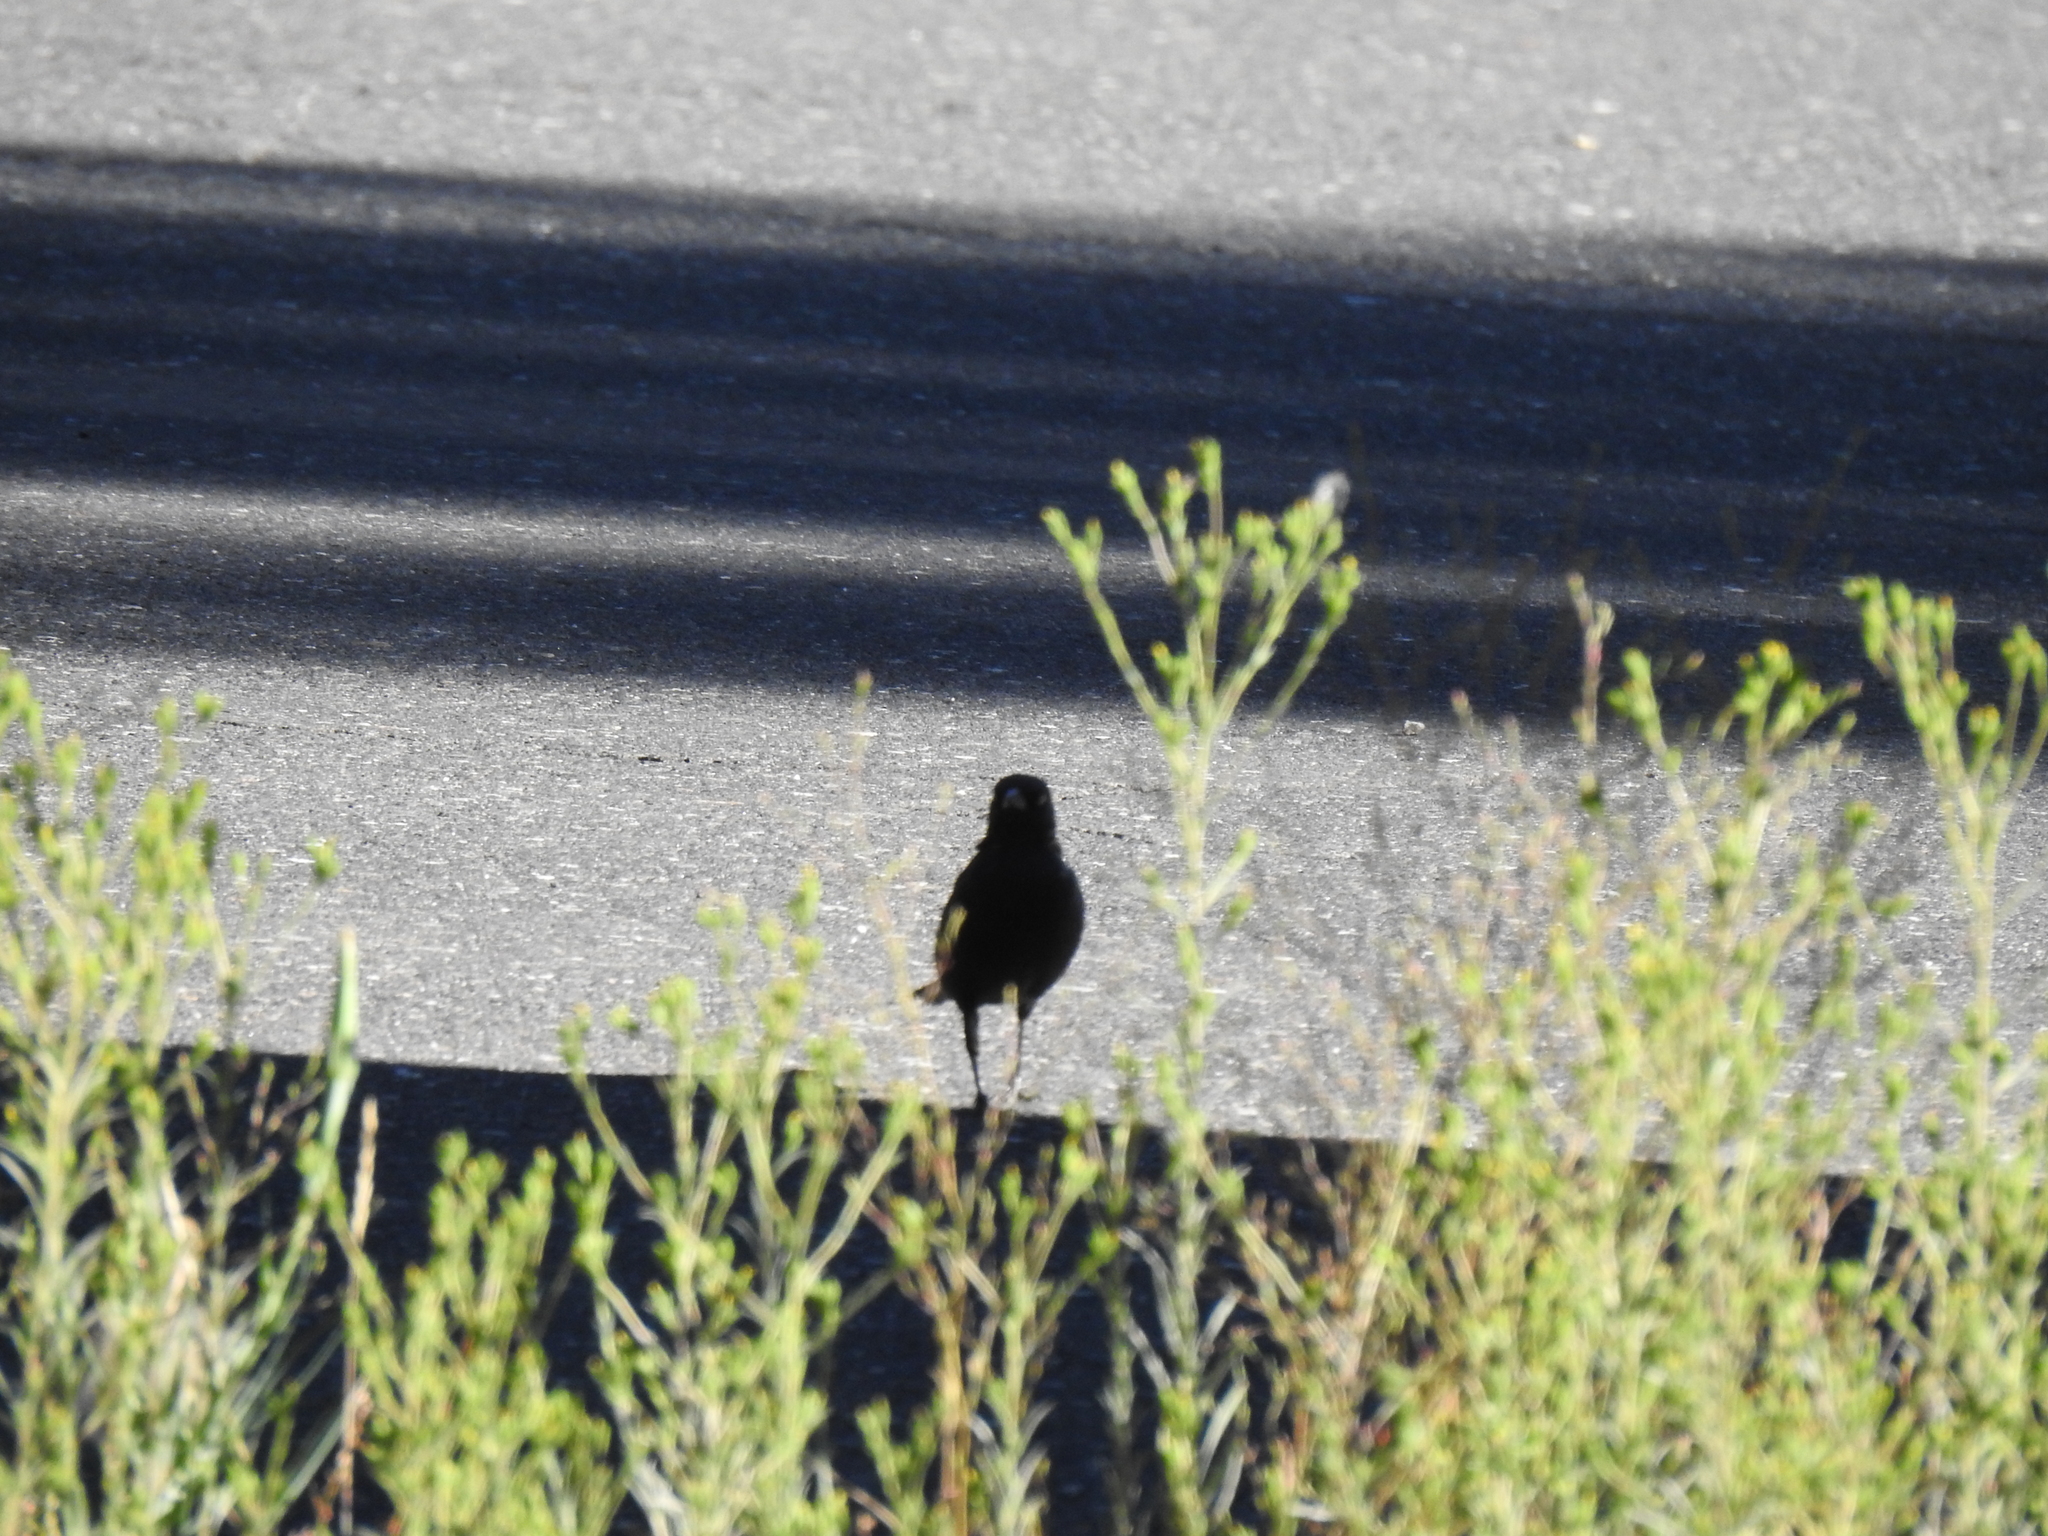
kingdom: Animalia
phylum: Chordata
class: Aves
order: Passeriformes
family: Icteridae
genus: Euphagus
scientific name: Euphagus cyanocephalus
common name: Brewer's blackbird
